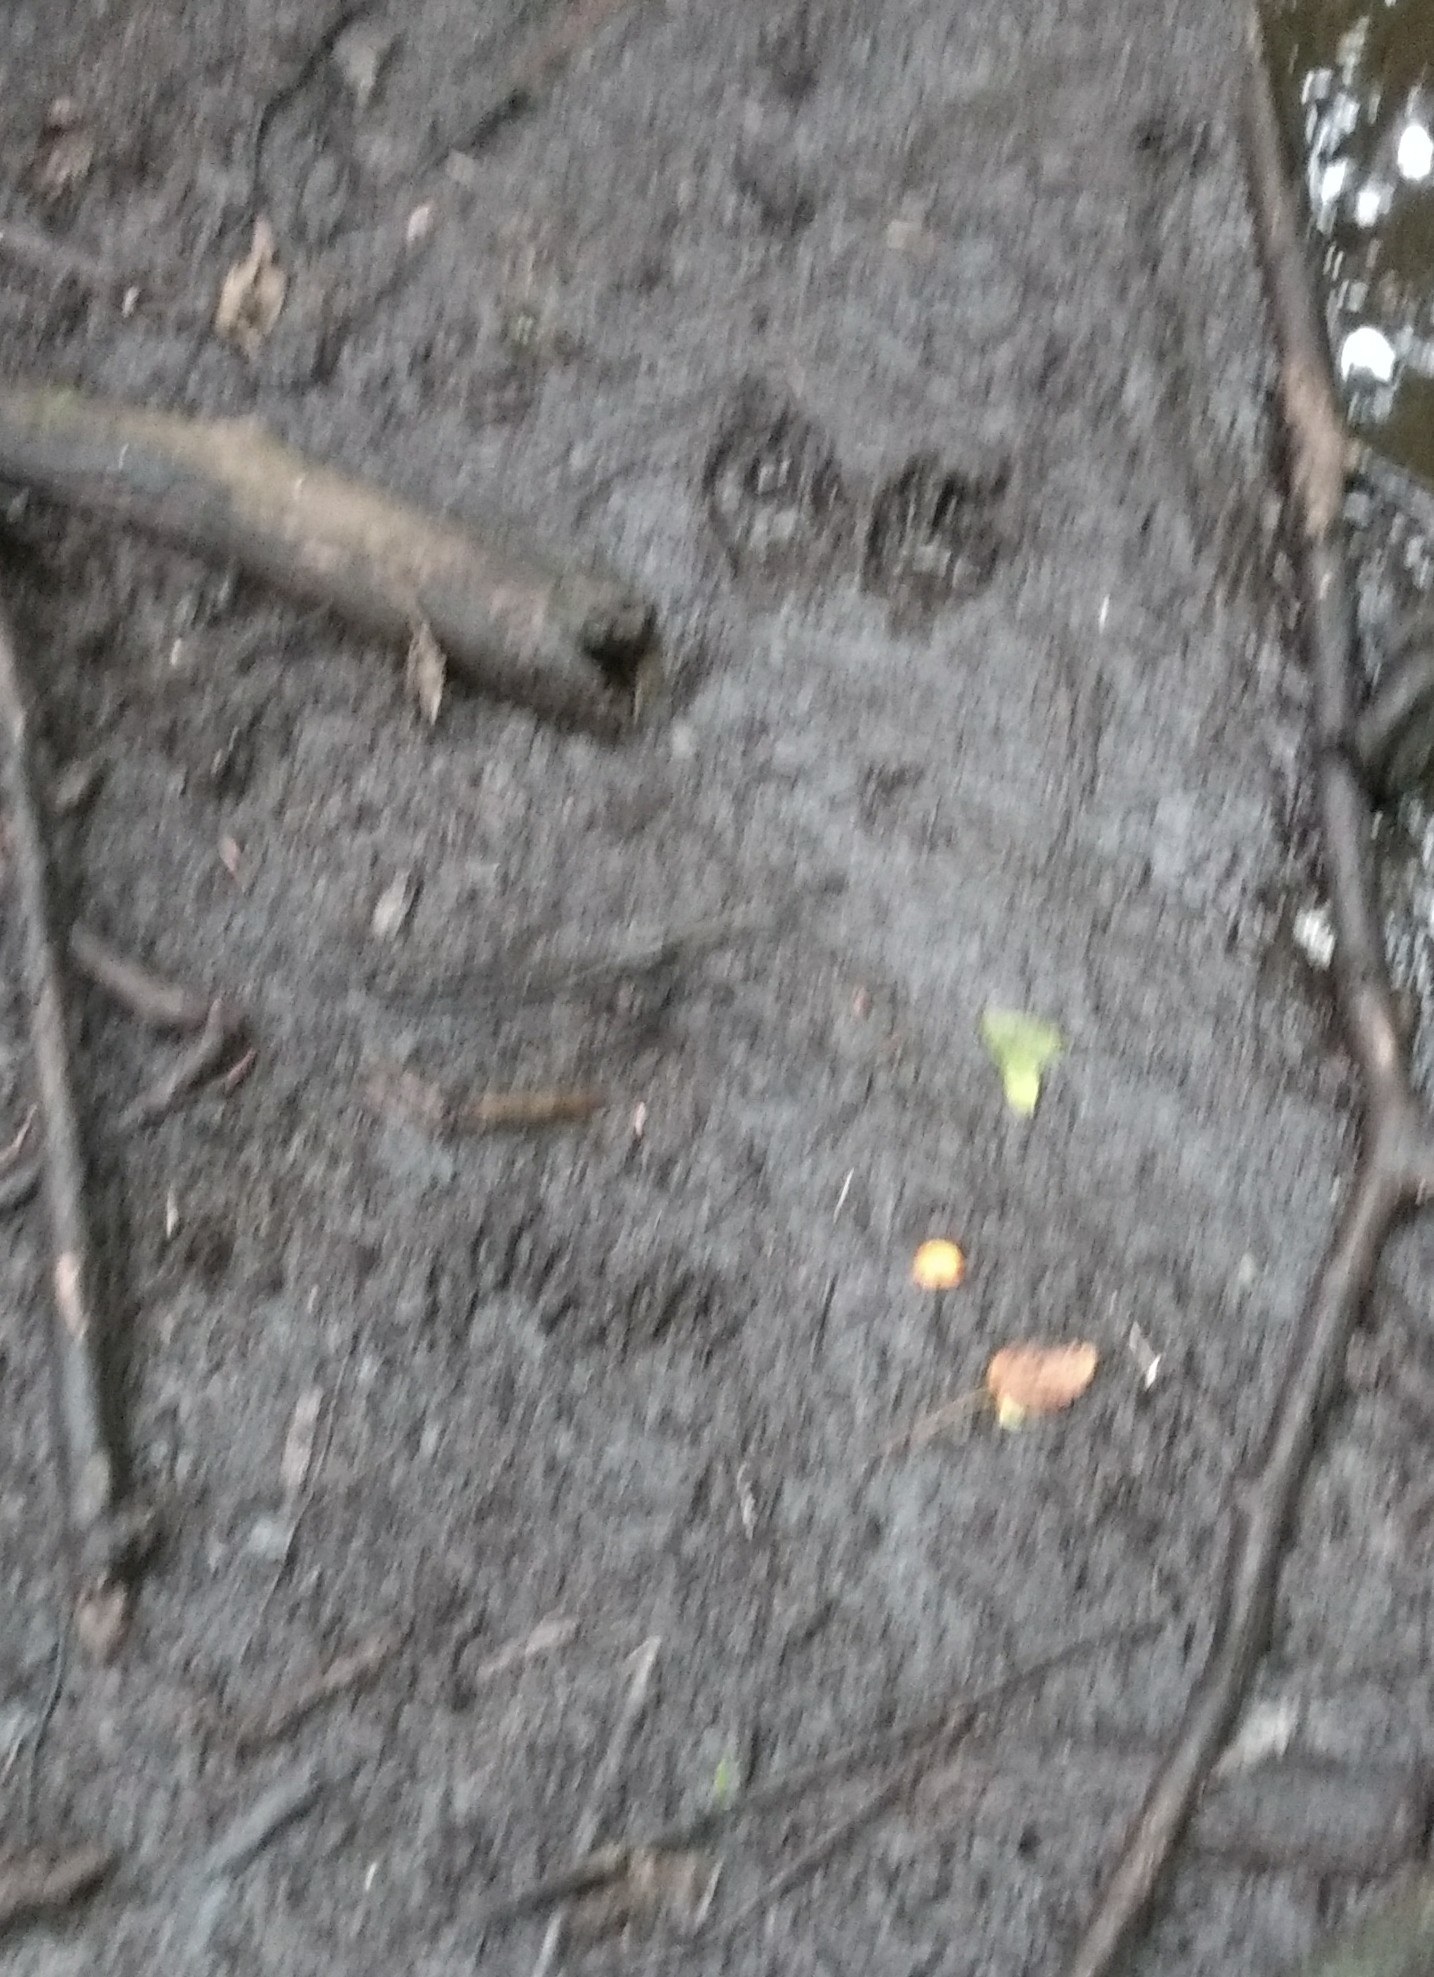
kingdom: Animalia
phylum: Chordata
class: Mammalia
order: Carnivora
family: Procyonidae
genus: Procyon
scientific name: Procyon lotor
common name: Raccoon
